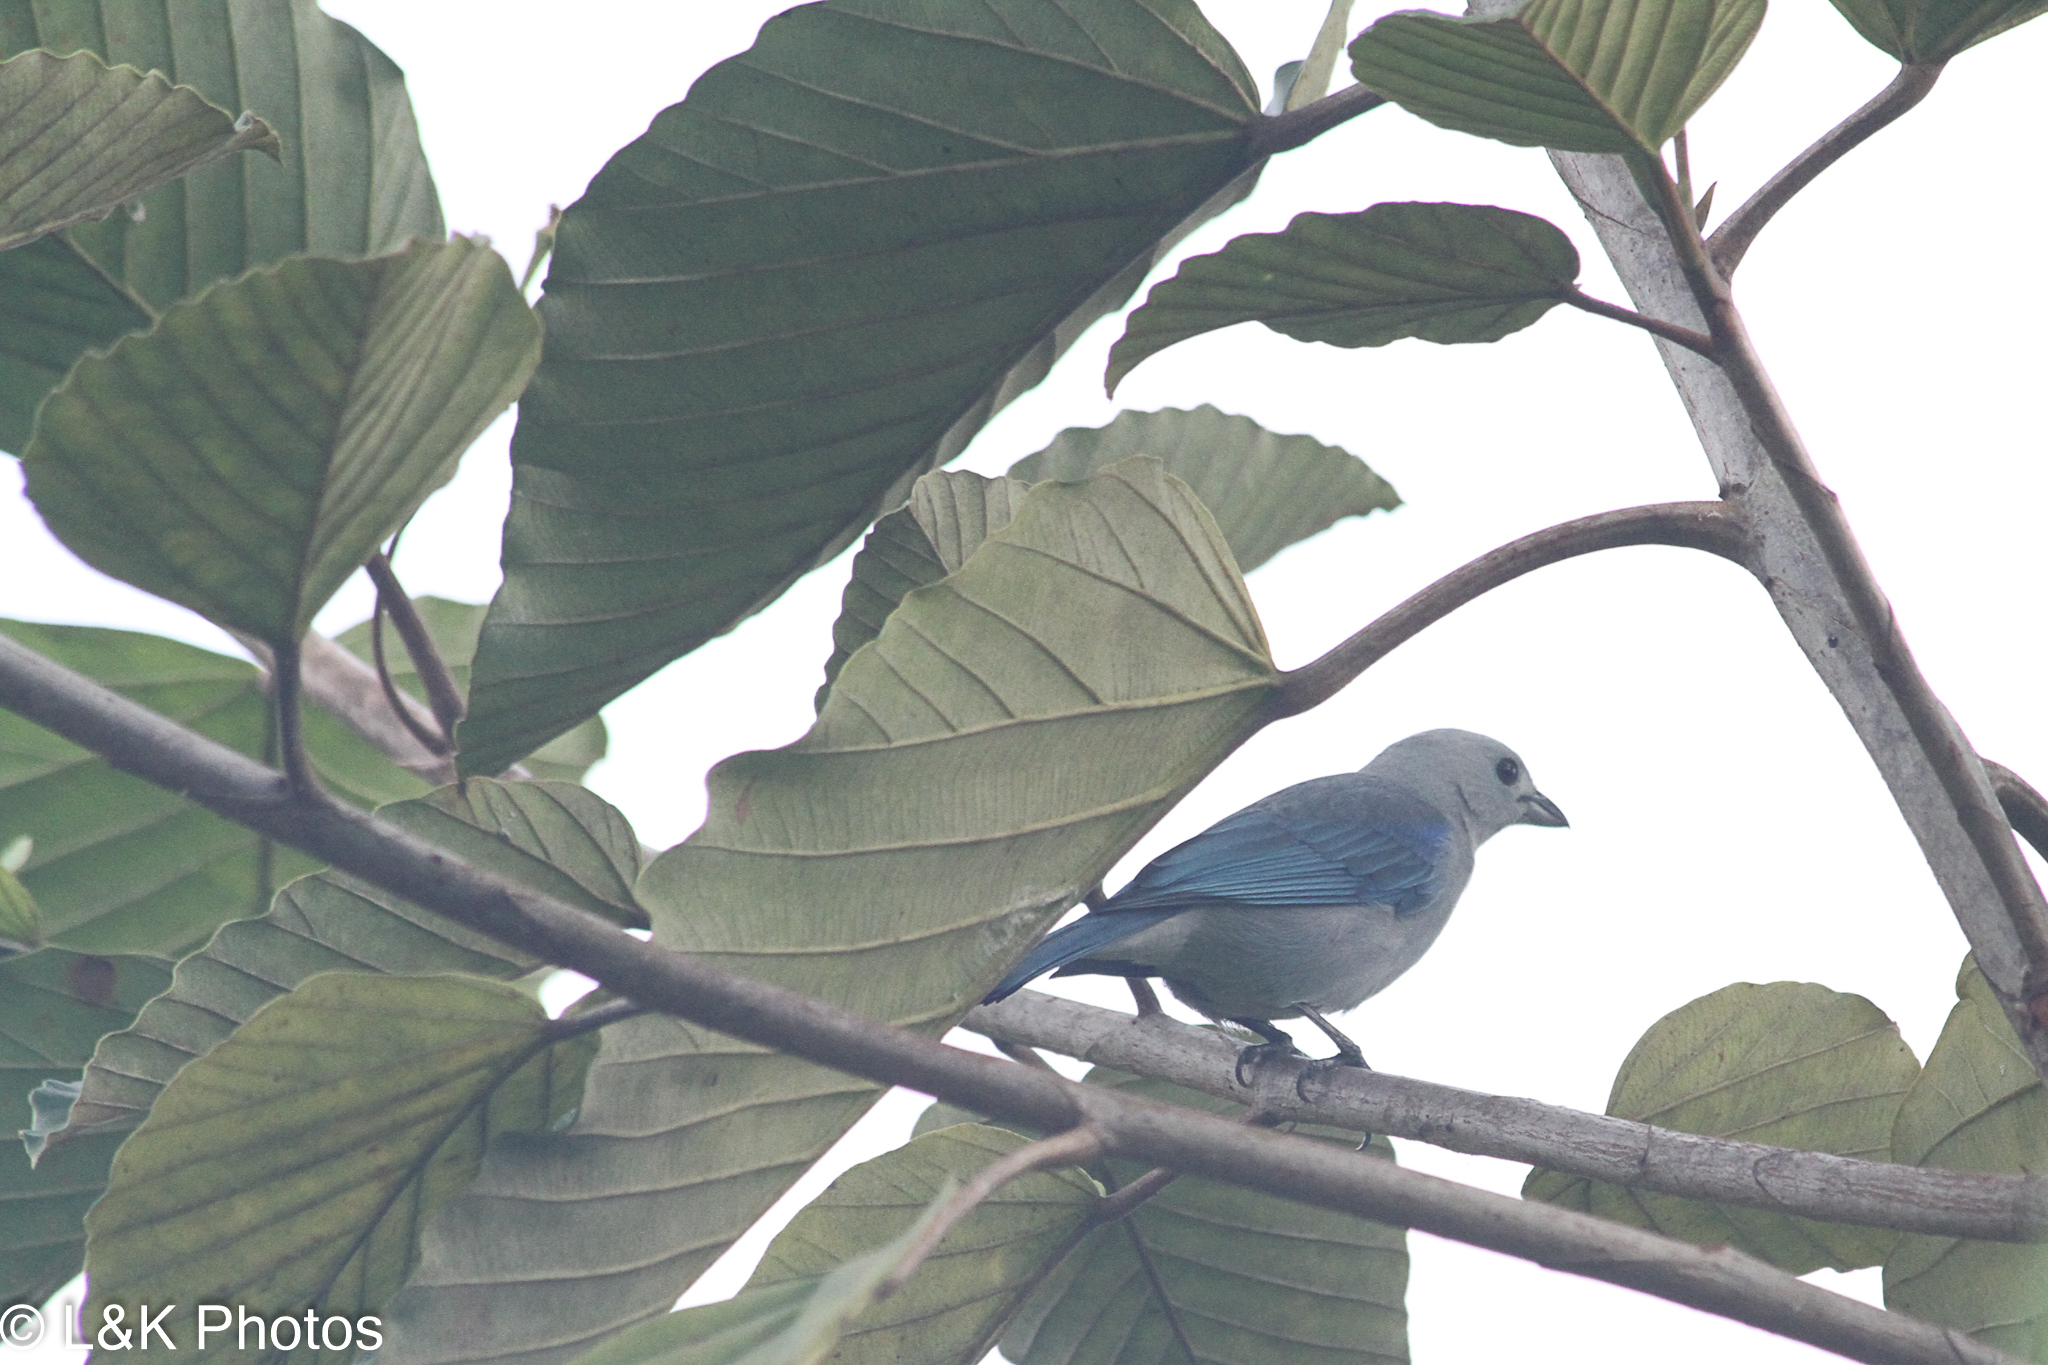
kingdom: Animalia
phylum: Chordata
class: Aves
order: Passeriformes
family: Thraupidae
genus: Thraupis
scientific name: Thraupis episcopus
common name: Blue-grey tanager
